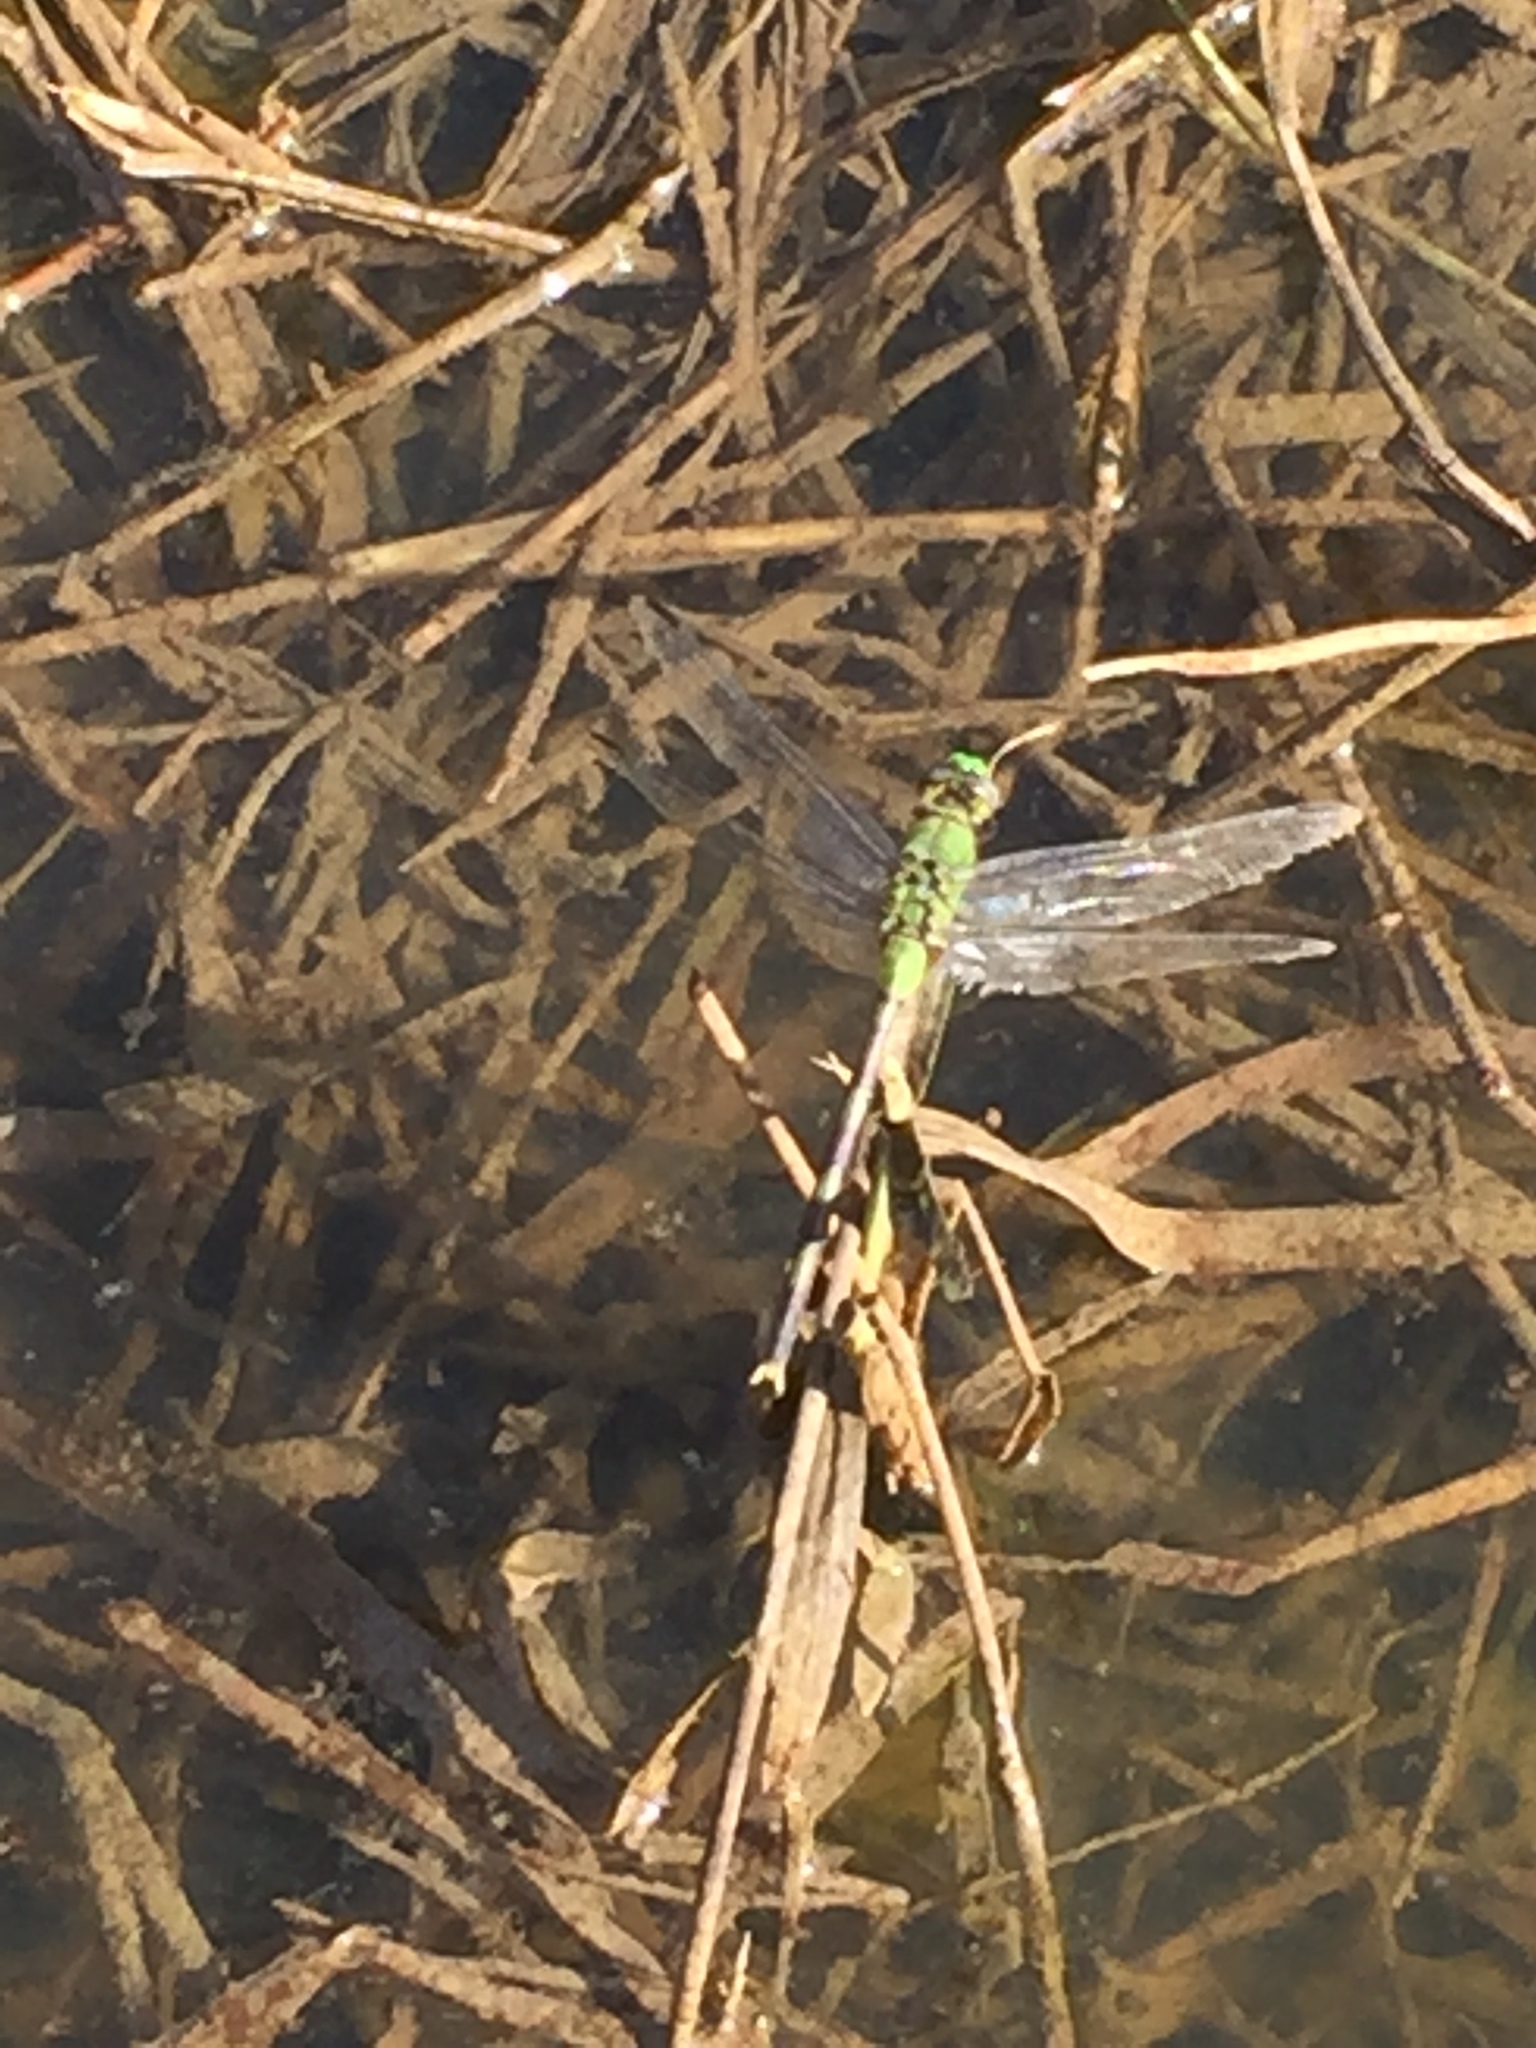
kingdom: Animalia
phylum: Arthropoda
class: Insecta
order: Odonata
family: Libellulidae
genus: Erythemis
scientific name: Erythemis vesiculosa
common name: Great pondhawk
